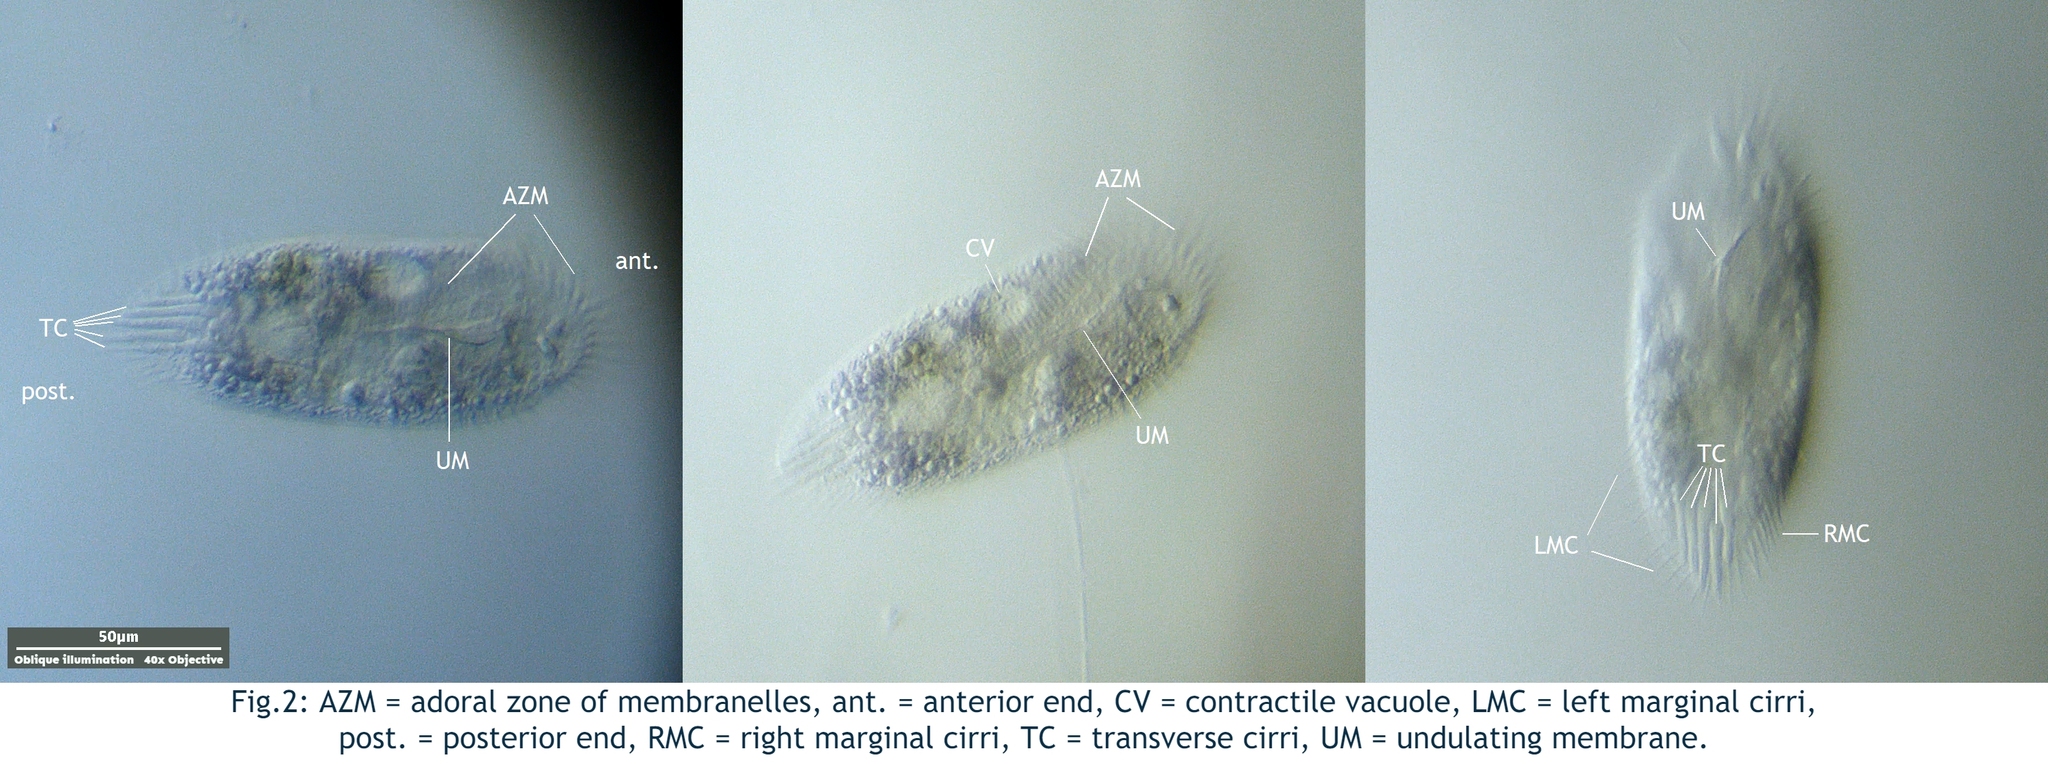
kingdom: Chromista
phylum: Ciliophora
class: Hypotrichea
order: Oxytrichida
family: Oxytrichidae
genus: Histriculus
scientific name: Histriculus histrio
